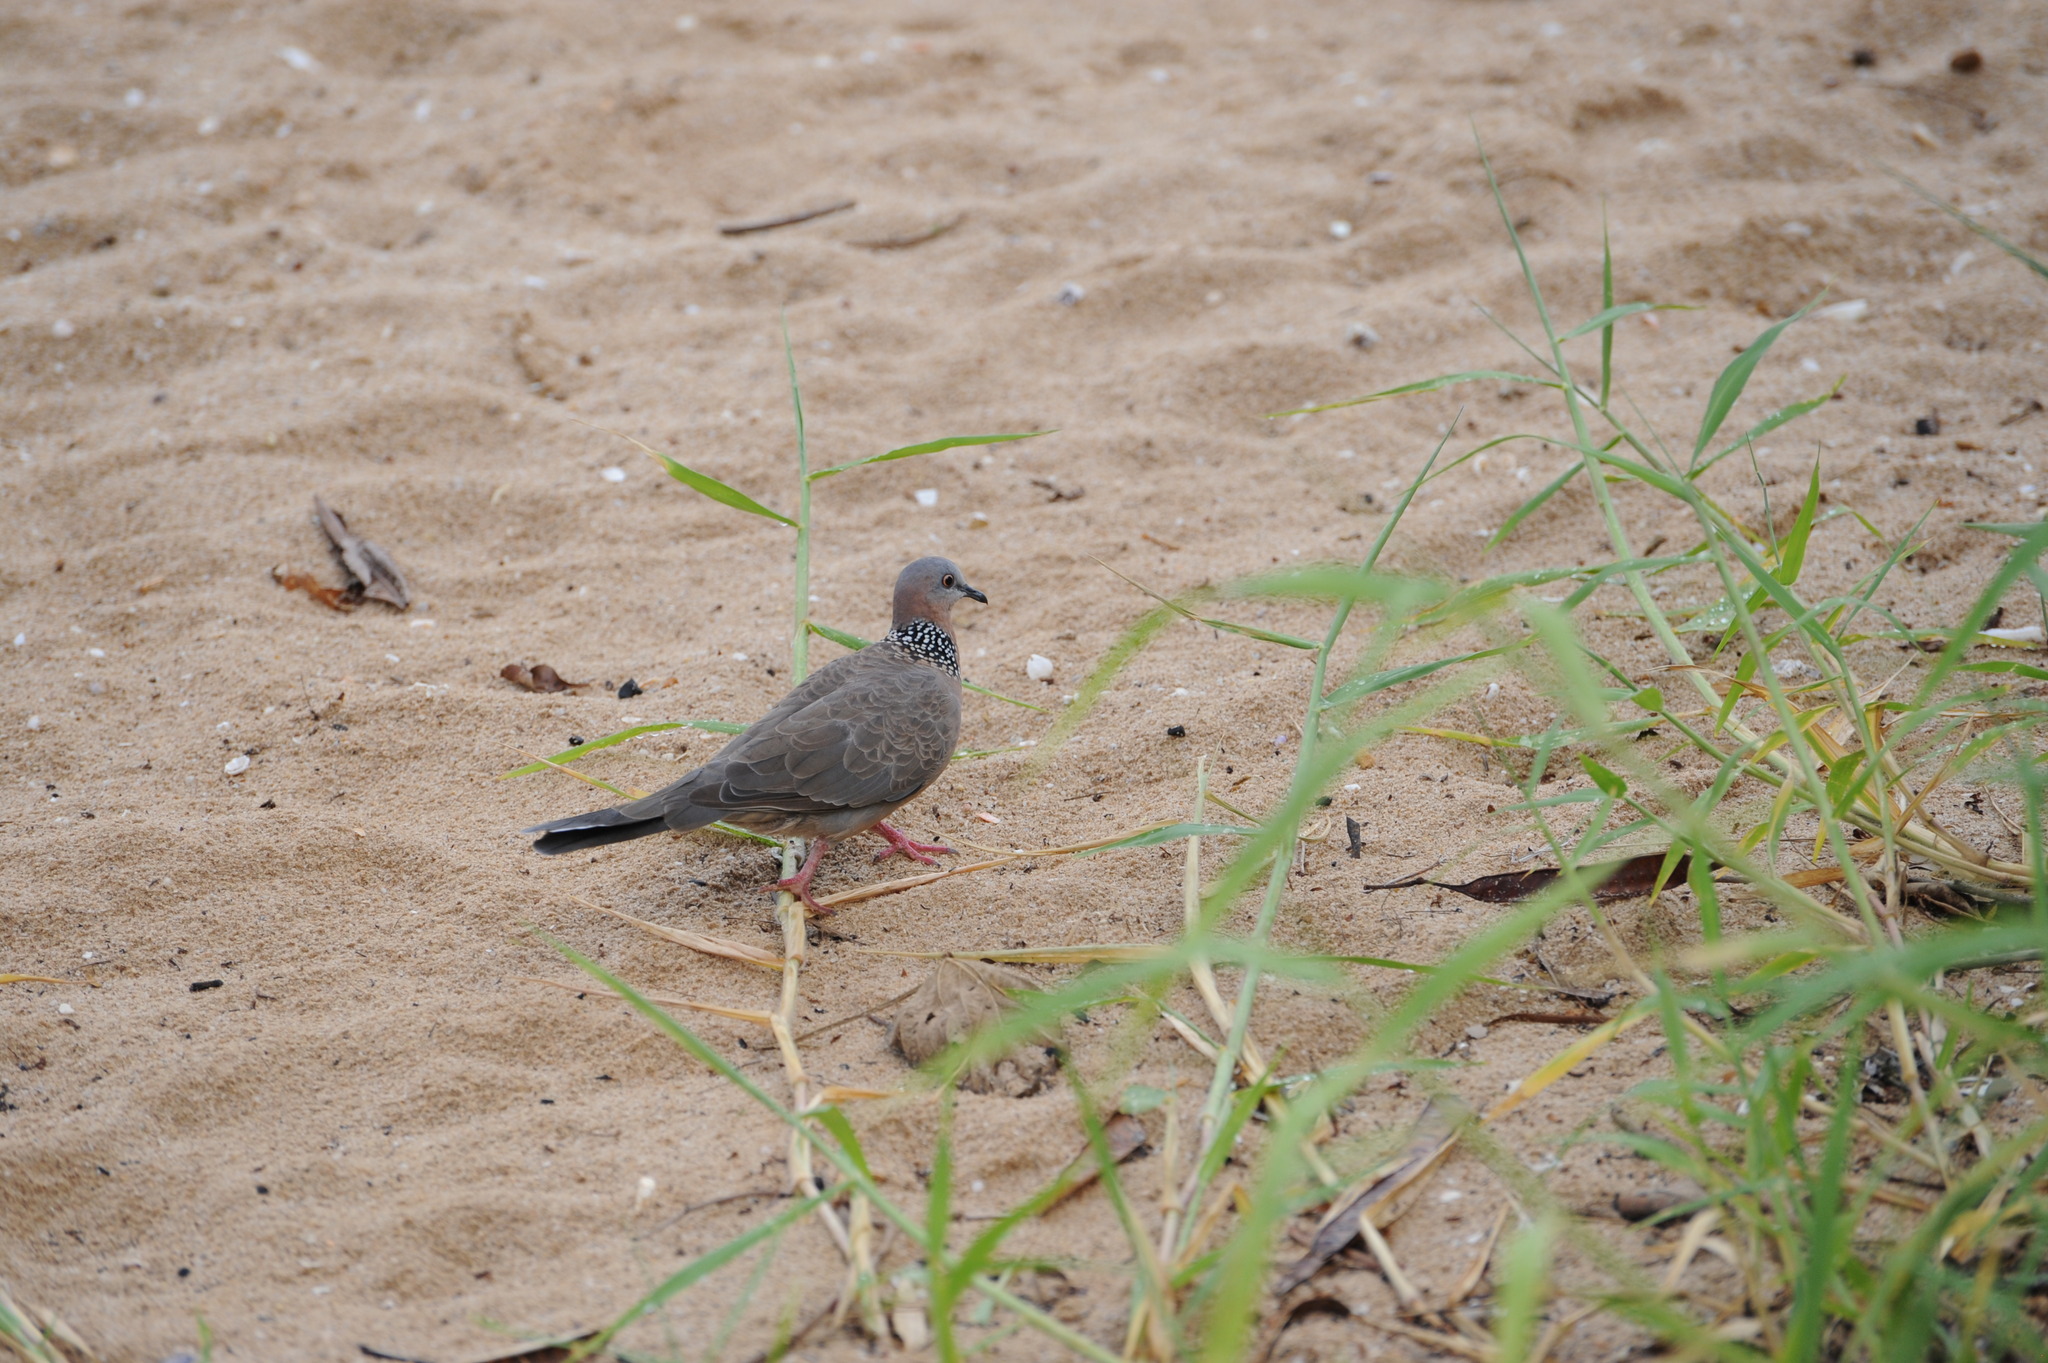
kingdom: Animalia
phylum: Chordata
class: Aves
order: Columbiformes
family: Columbidae
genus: Spilopelia
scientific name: Spilopelia chinensis
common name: Spotted dove
